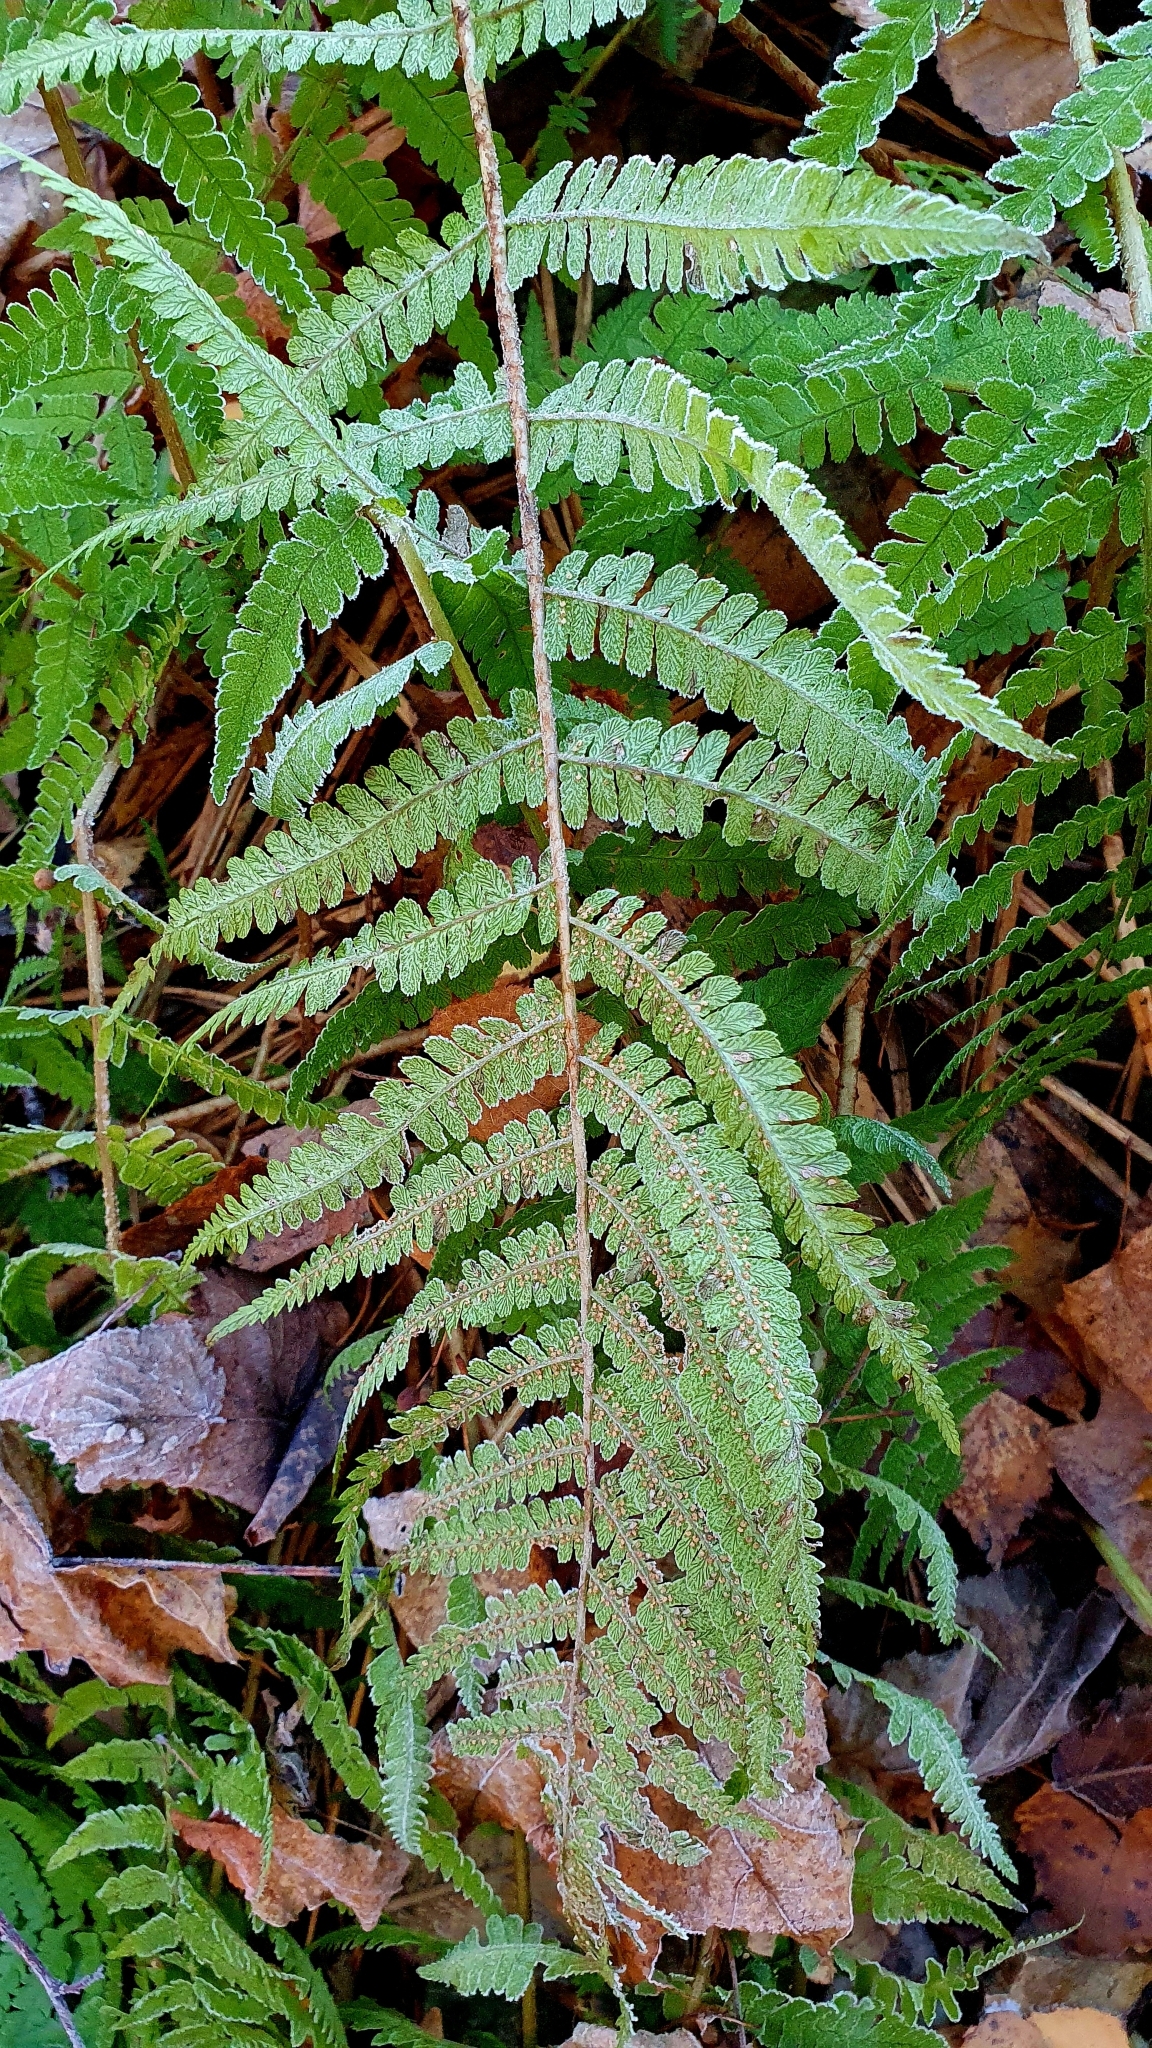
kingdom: Plantae
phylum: Tracheophyta
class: Polypodiopsida
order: Polypodiales
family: Dryopteridaceae
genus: Dryopteris
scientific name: Dryopteris filix-mas
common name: Male fern
